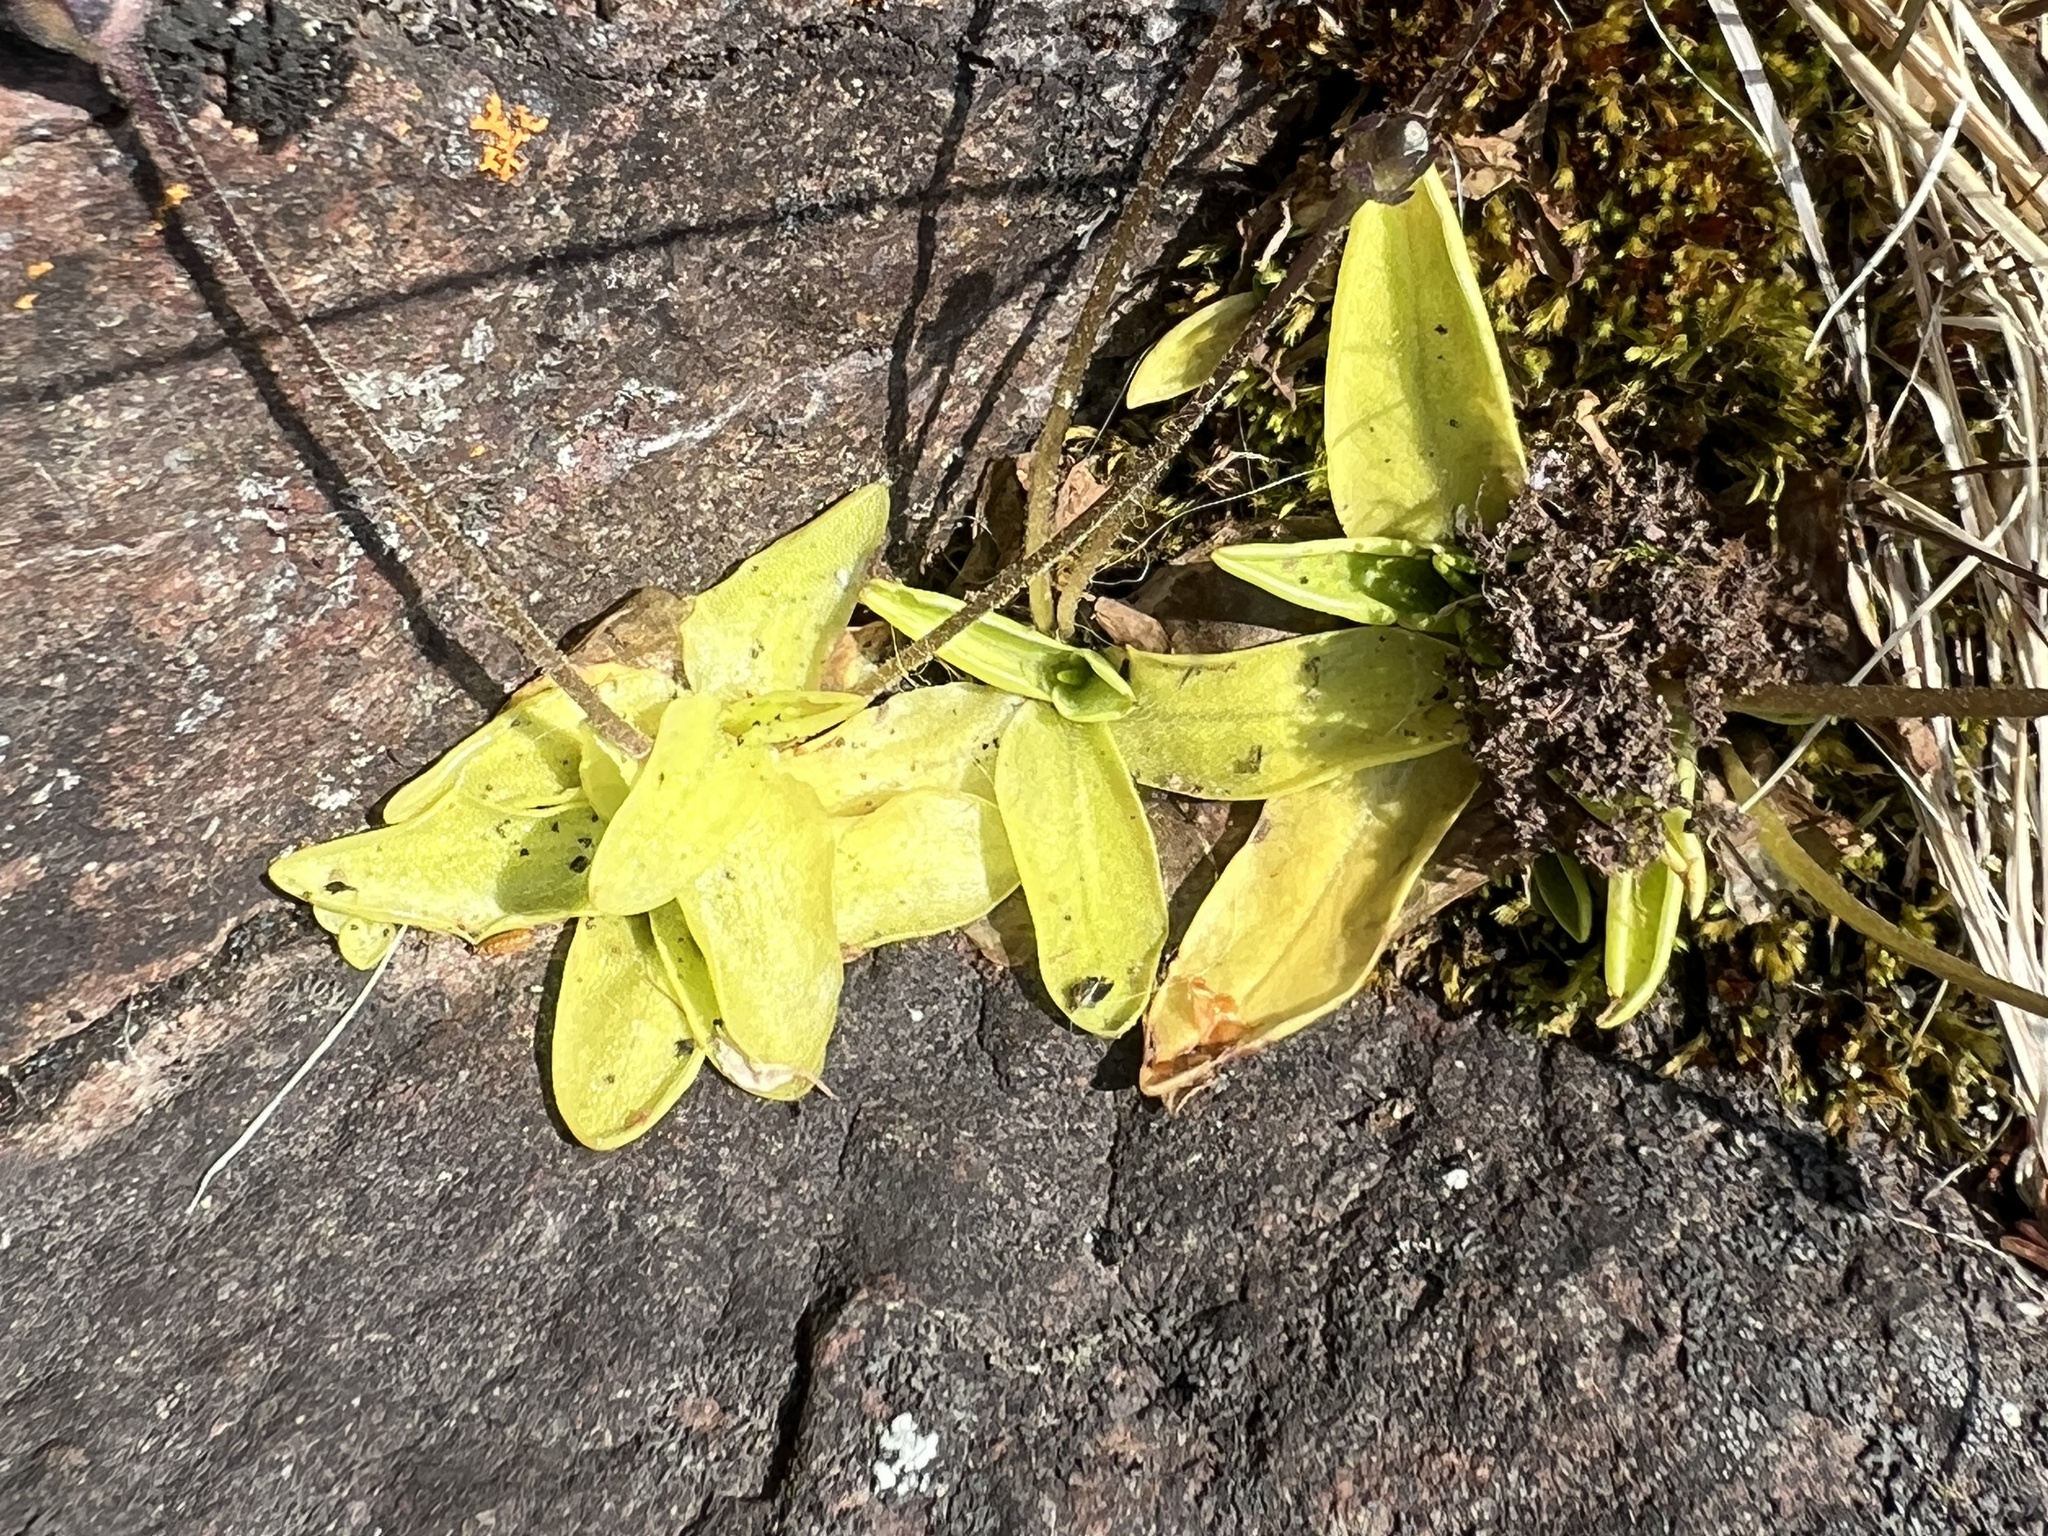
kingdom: Plantae
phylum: Tracheophyta
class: Magnoliopsida
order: Lamiales
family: Lentibulariaceae
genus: Pinguicula
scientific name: Pinguicula vulgaris
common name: Common butterwort
